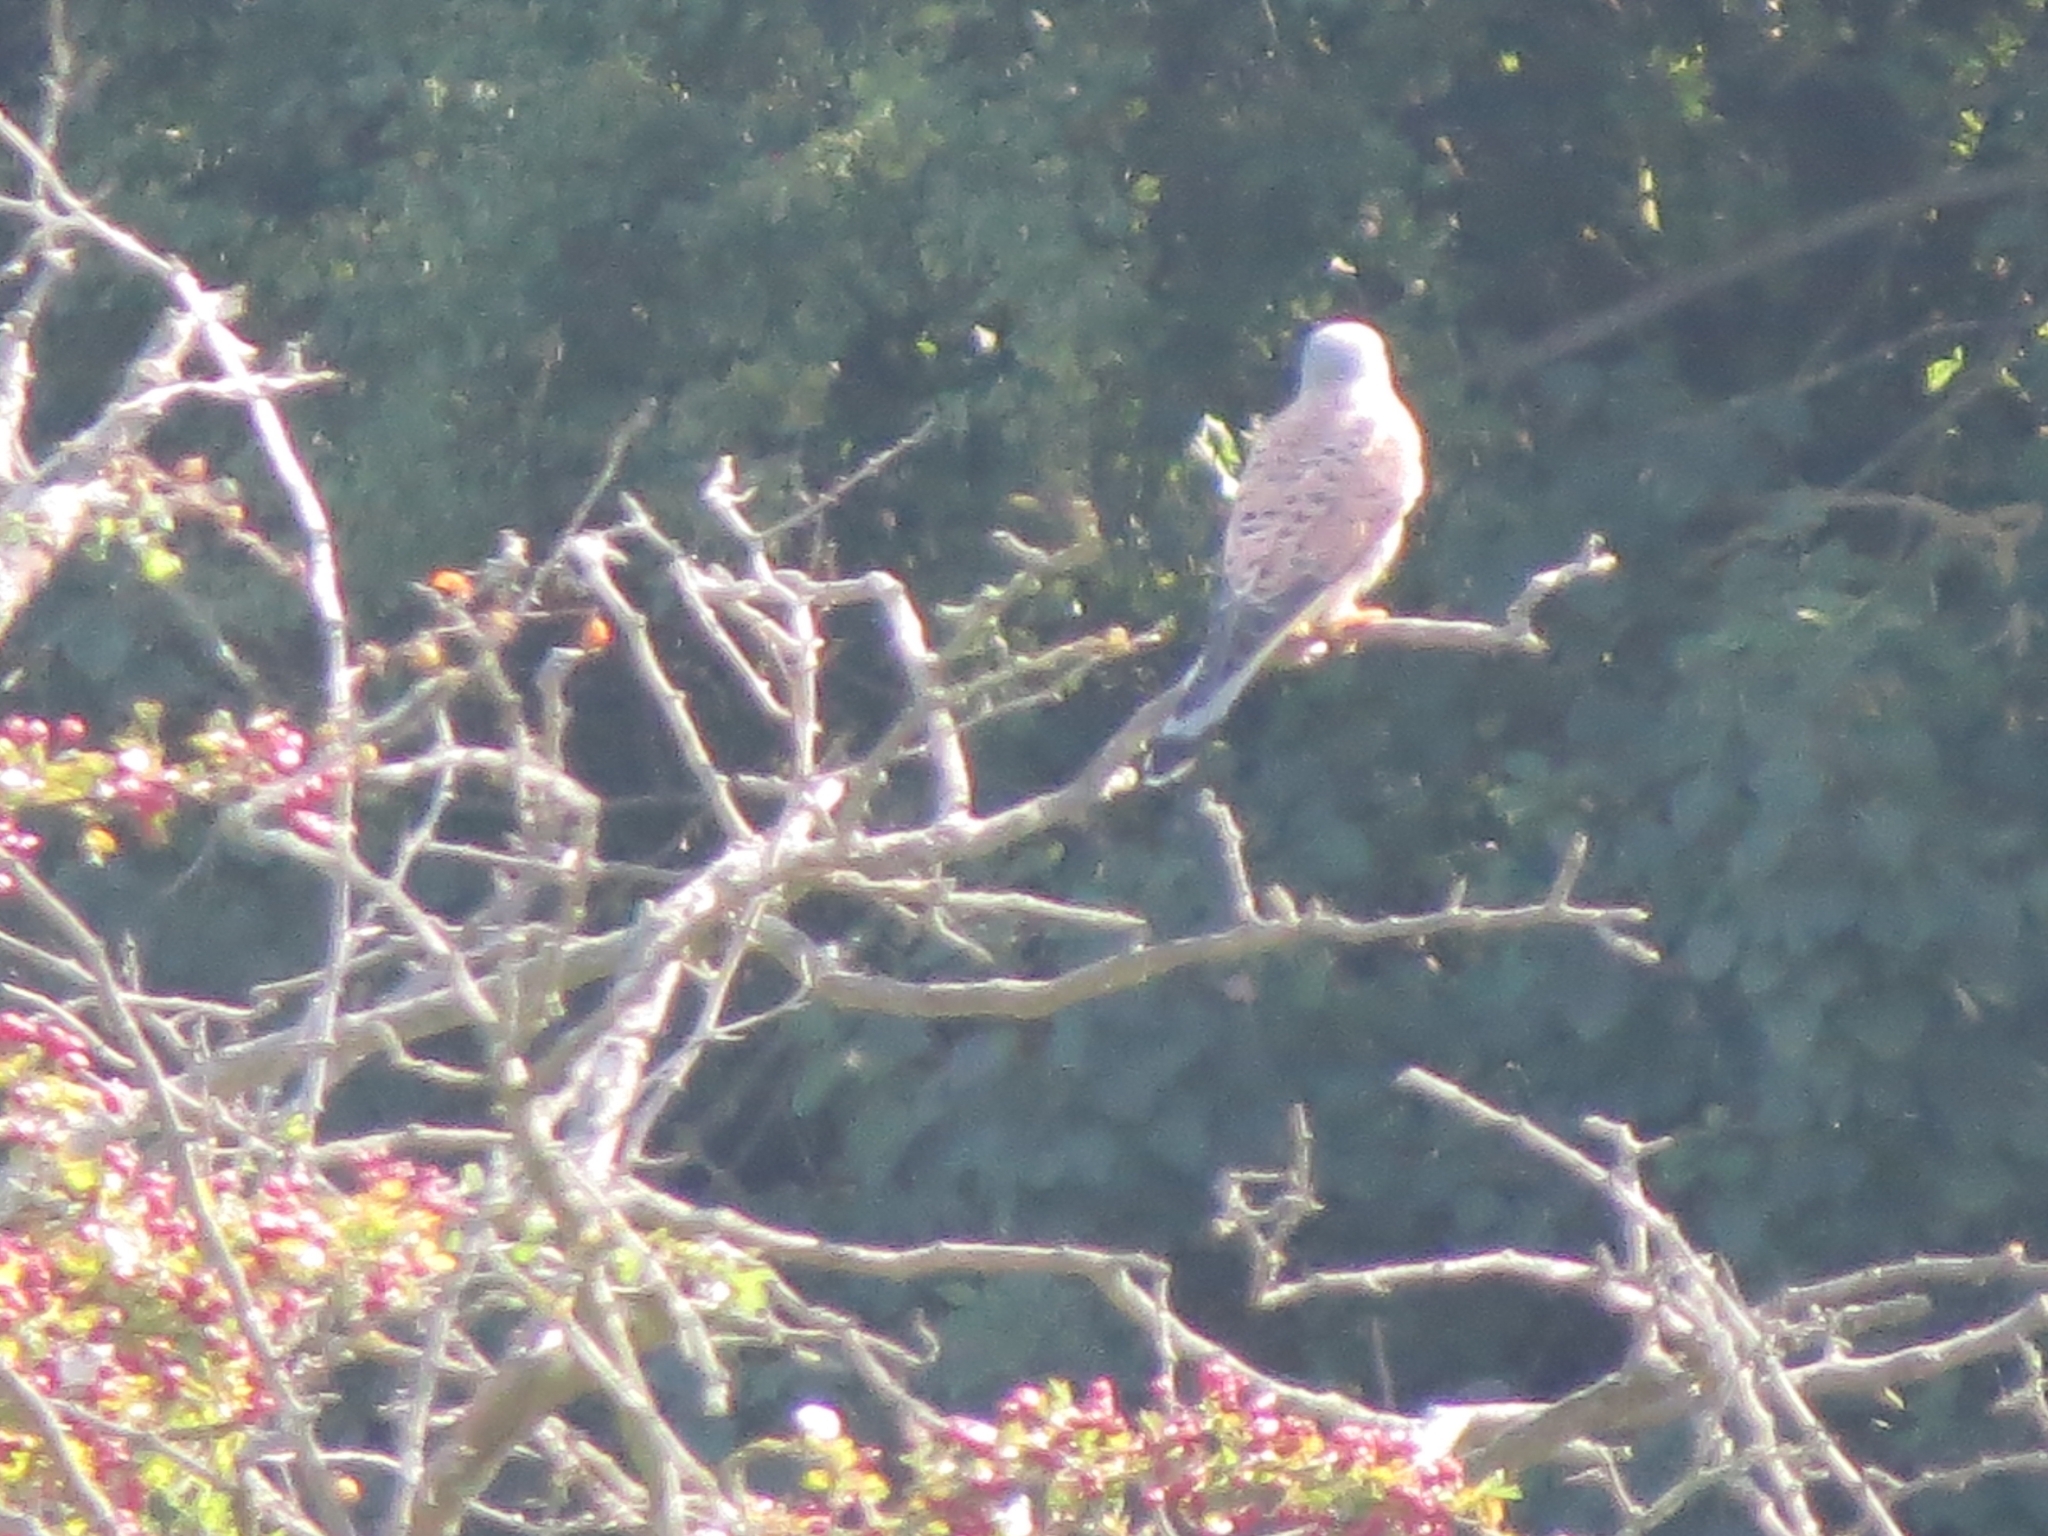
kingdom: Animalia
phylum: Chordata
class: Aves
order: Falconiformes
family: Falconidae
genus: Falco
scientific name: Falco tinnunculus
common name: Common kestrel
